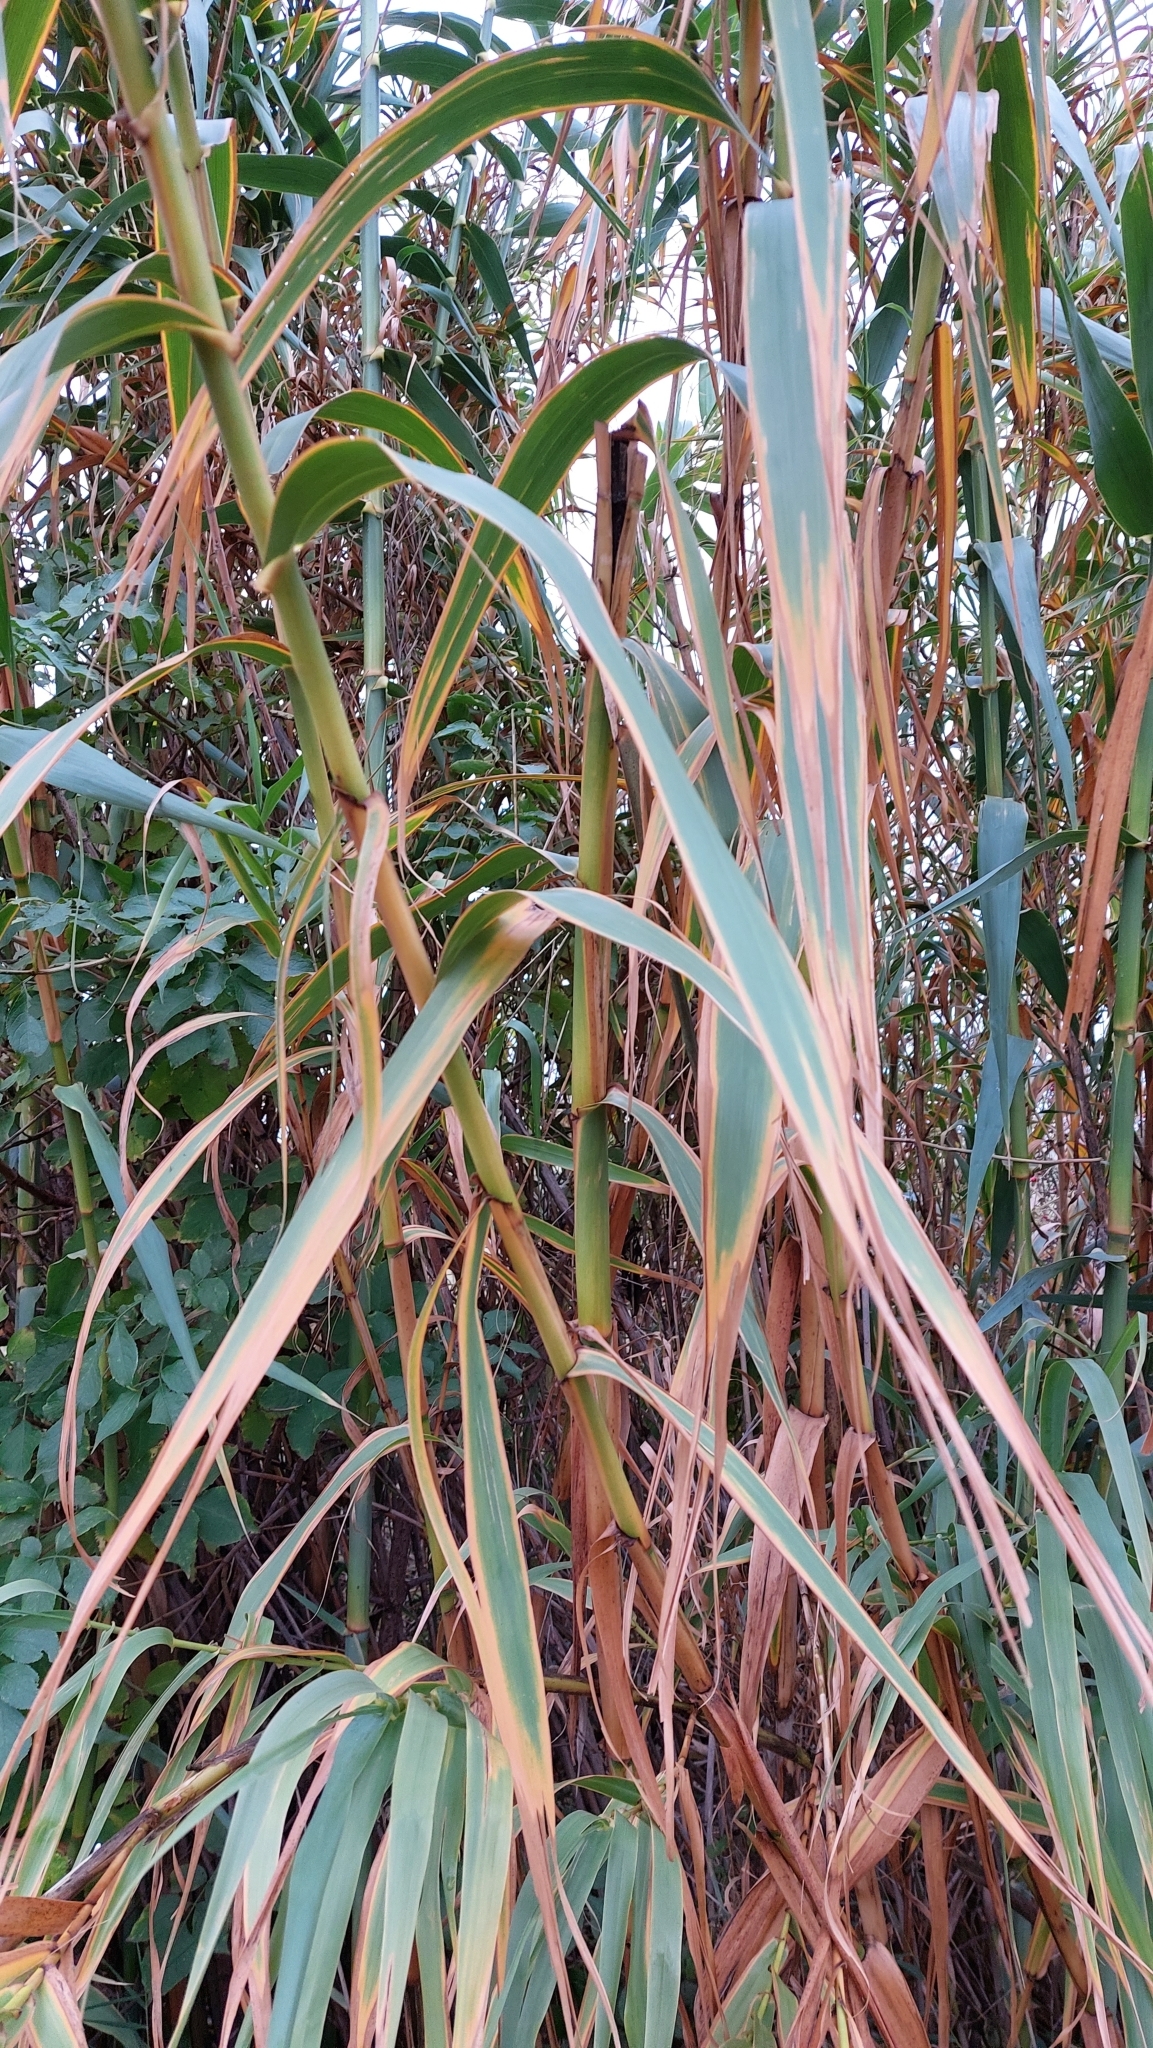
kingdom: Plantae
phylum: Tracheophyta
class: Liliopsida
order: Poales
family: Poaceae
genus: Arundo
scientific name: Arundo donax
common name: Giant reed
